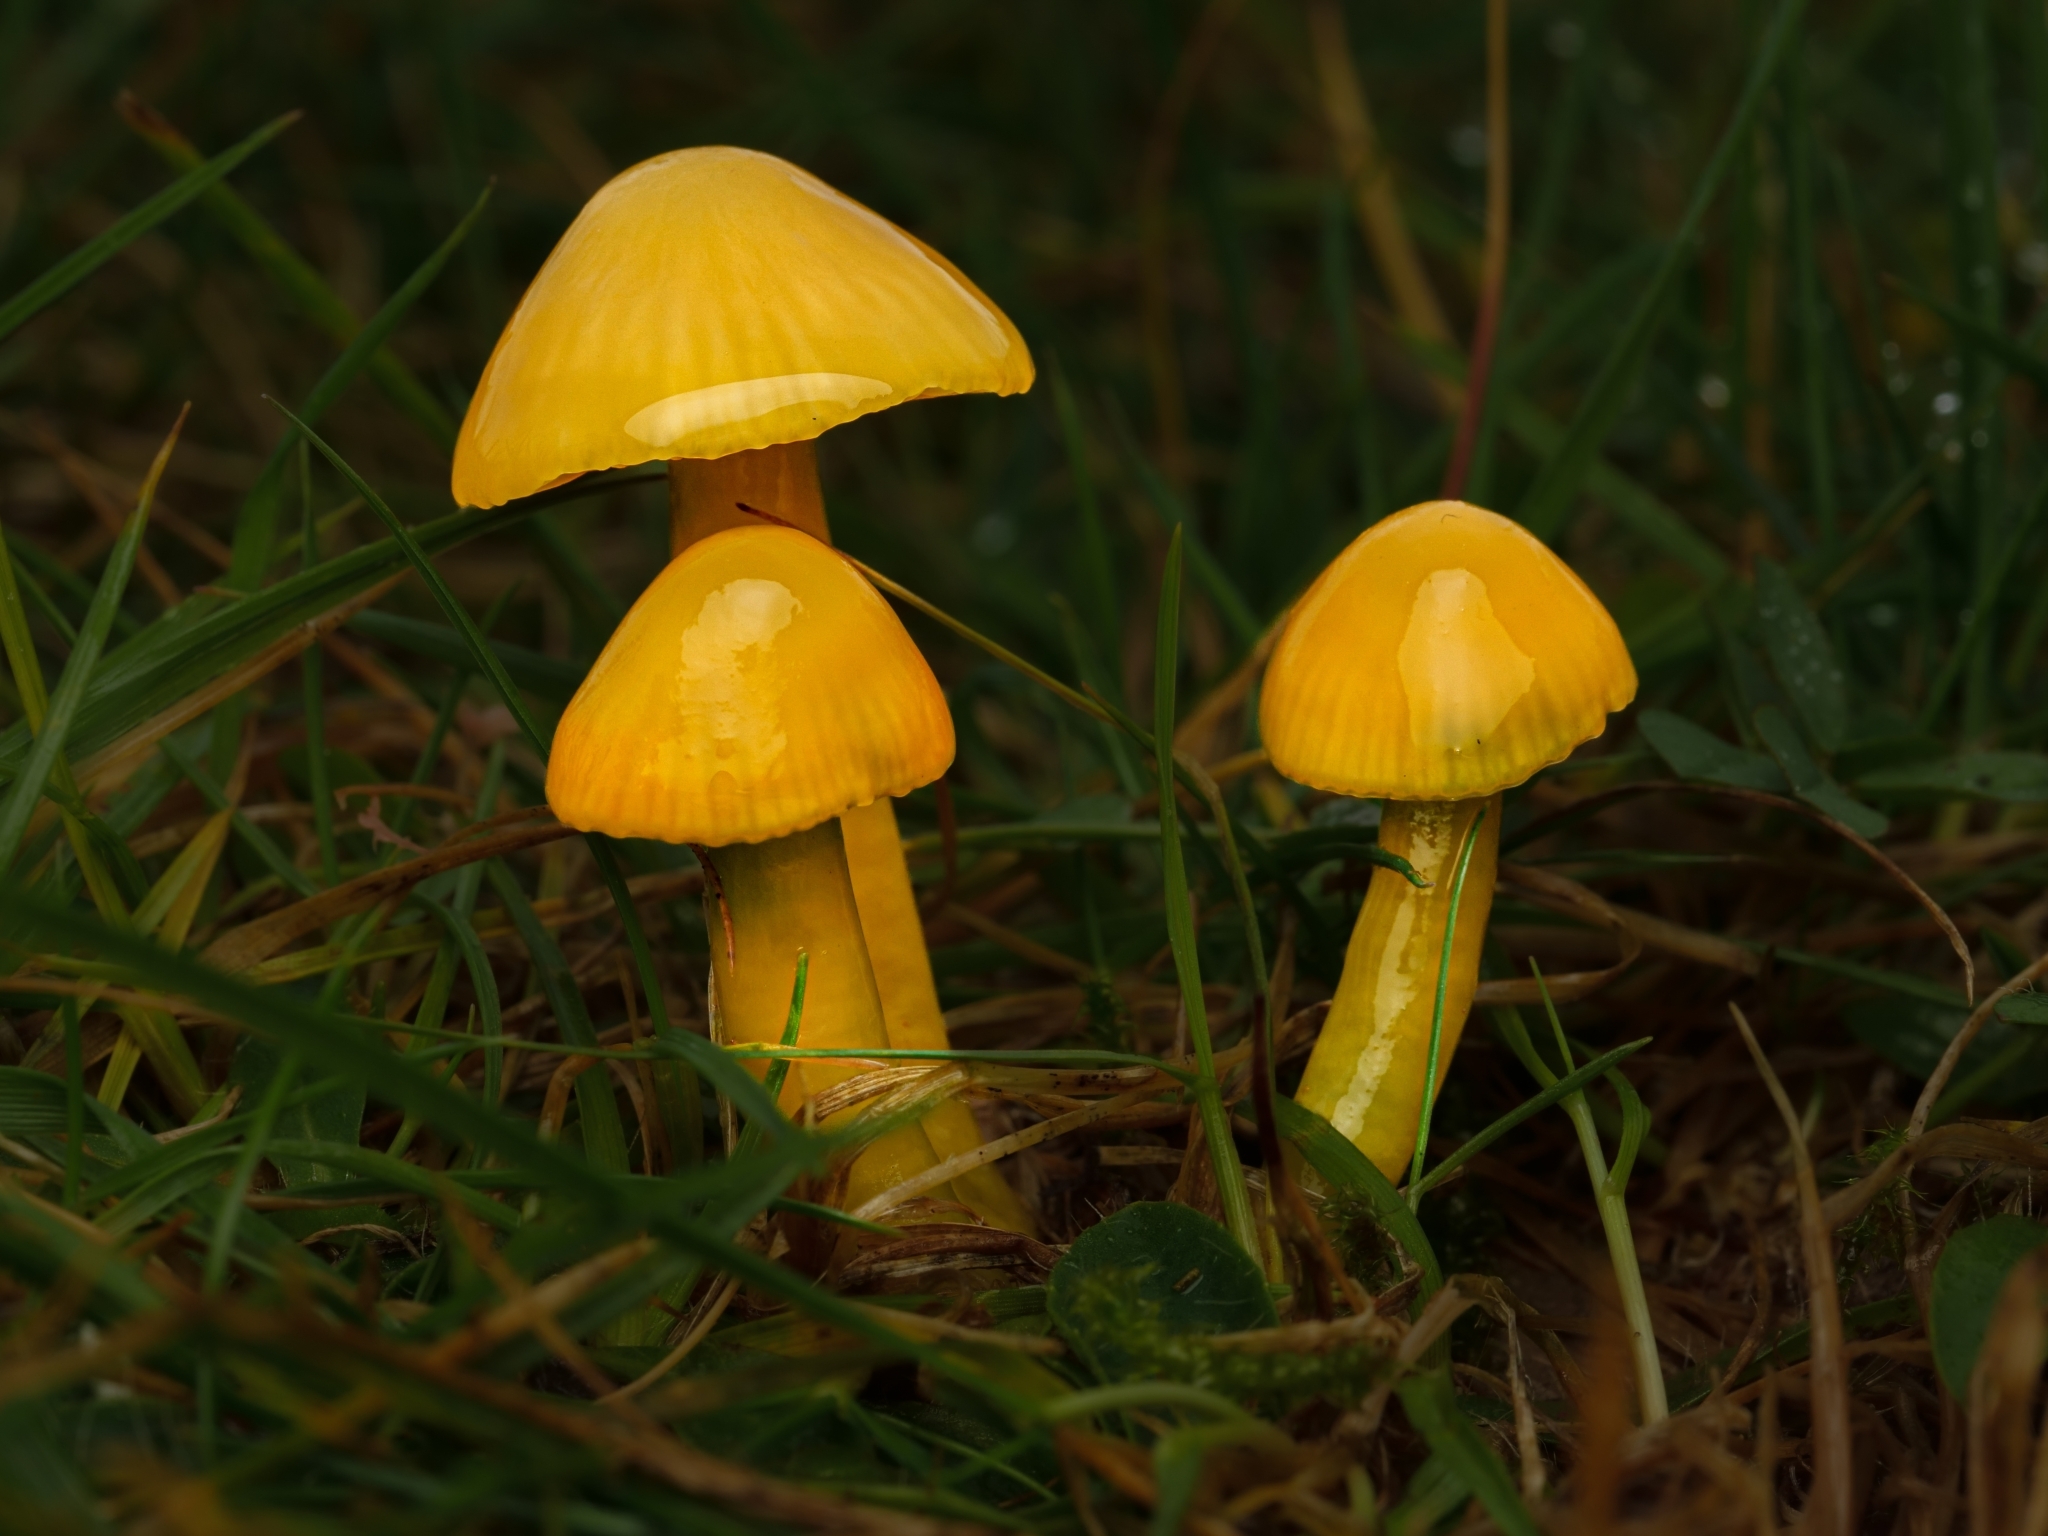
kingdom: Fungi
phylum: Basidiomycota
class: Agaricomycetes
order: Agaricales
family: Hygrophoraceae
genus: Gliophorus
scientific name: Gliophorus psittacinus
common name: Parrot wax-cap
